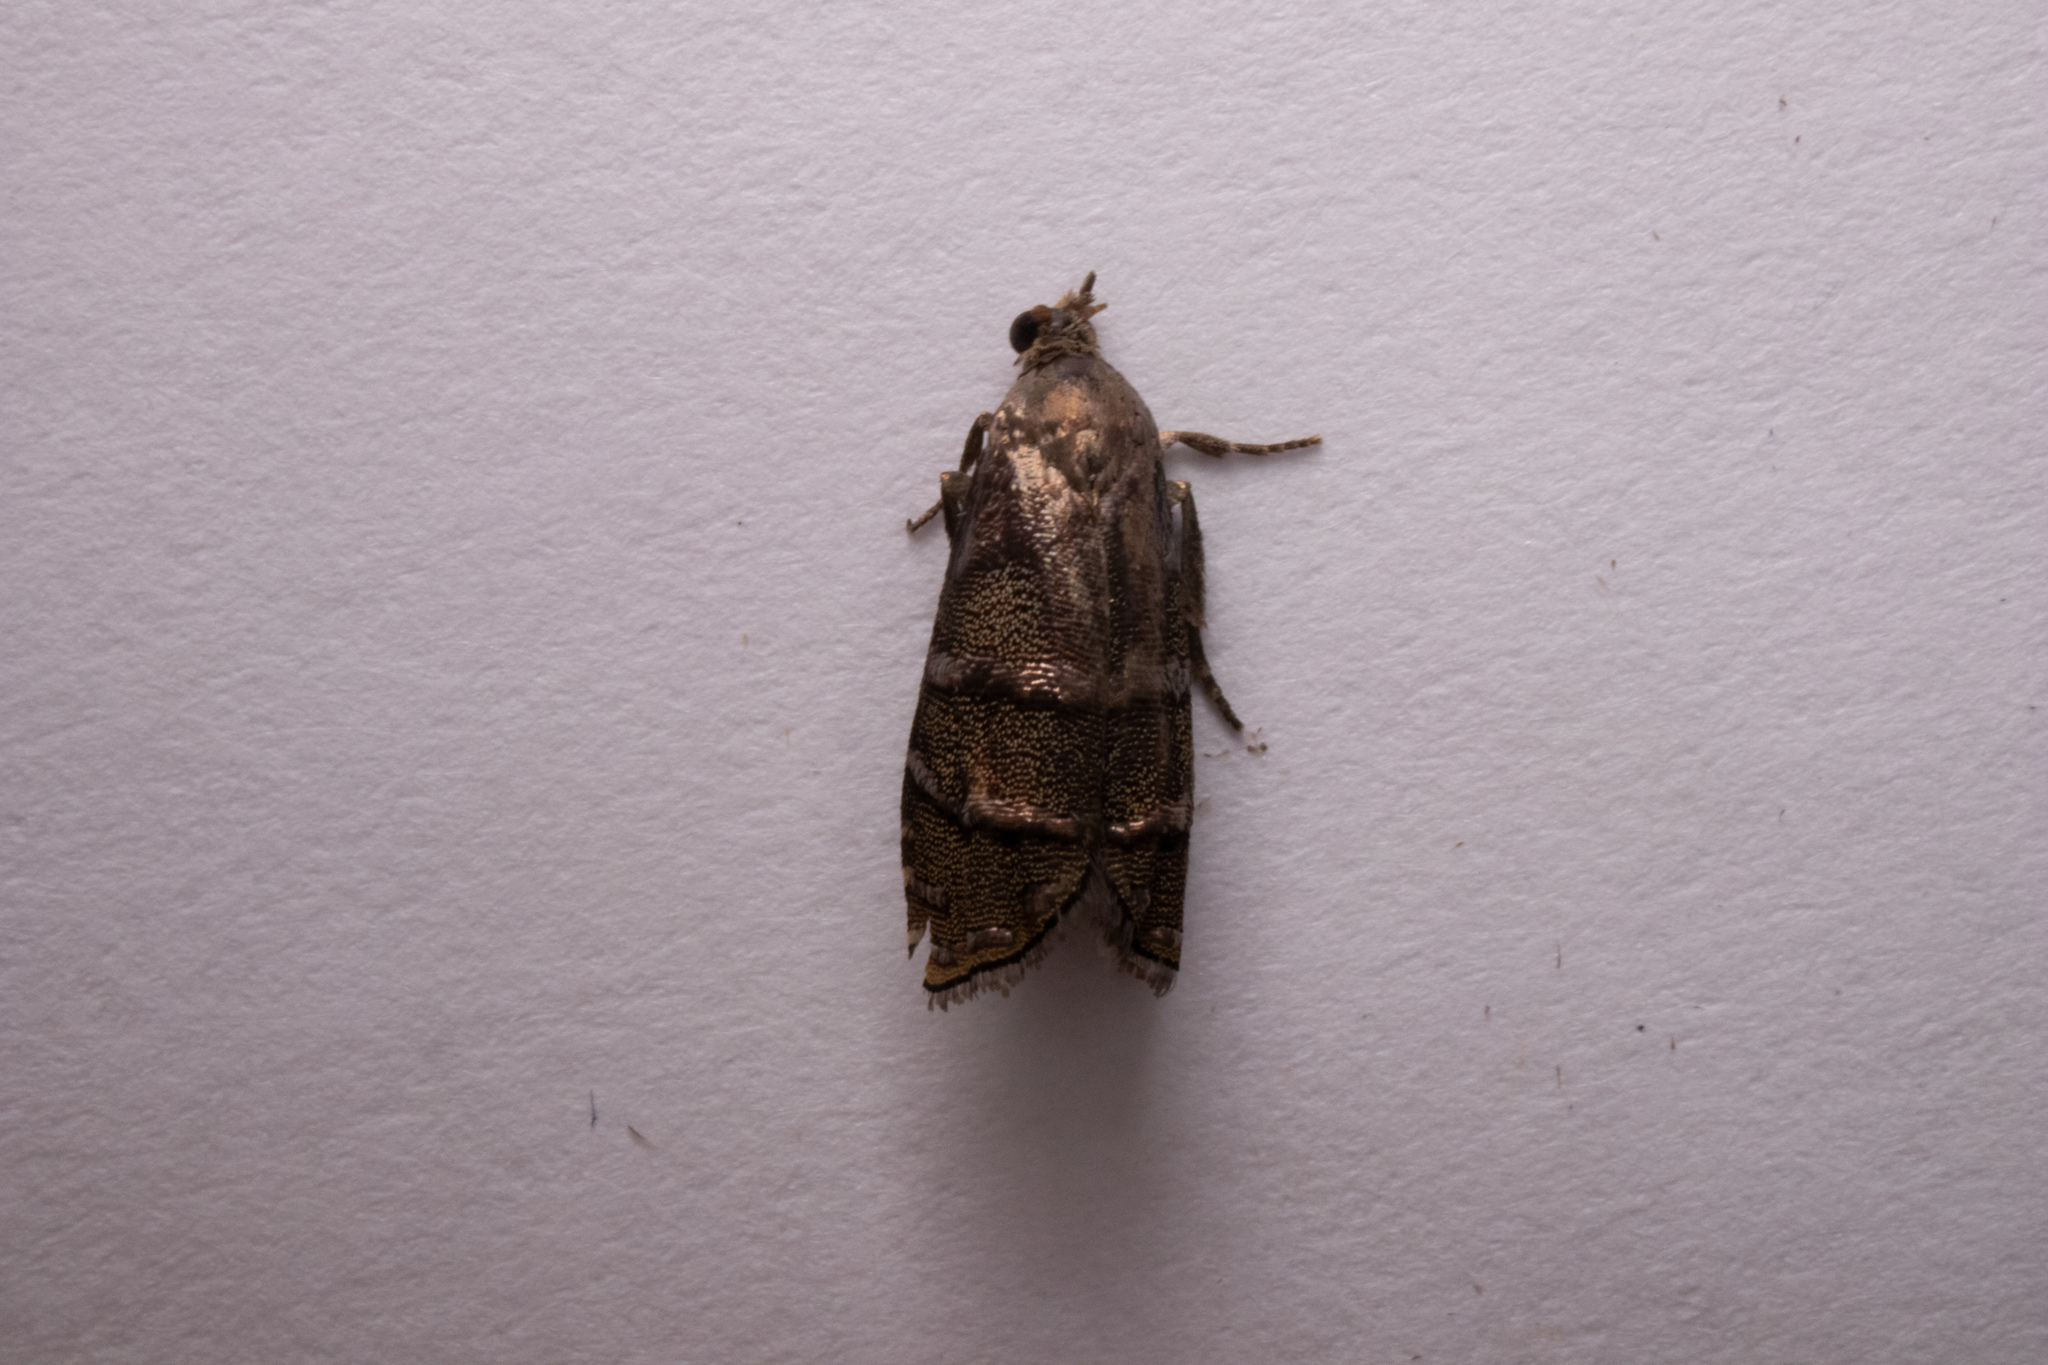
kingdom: Animalia
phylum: Arthropoda
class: Insecta
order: Lepidoptera
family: Tortricidae
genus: Cydia
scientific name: Cydia toreuta
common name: Eastern pine seedworm moth
